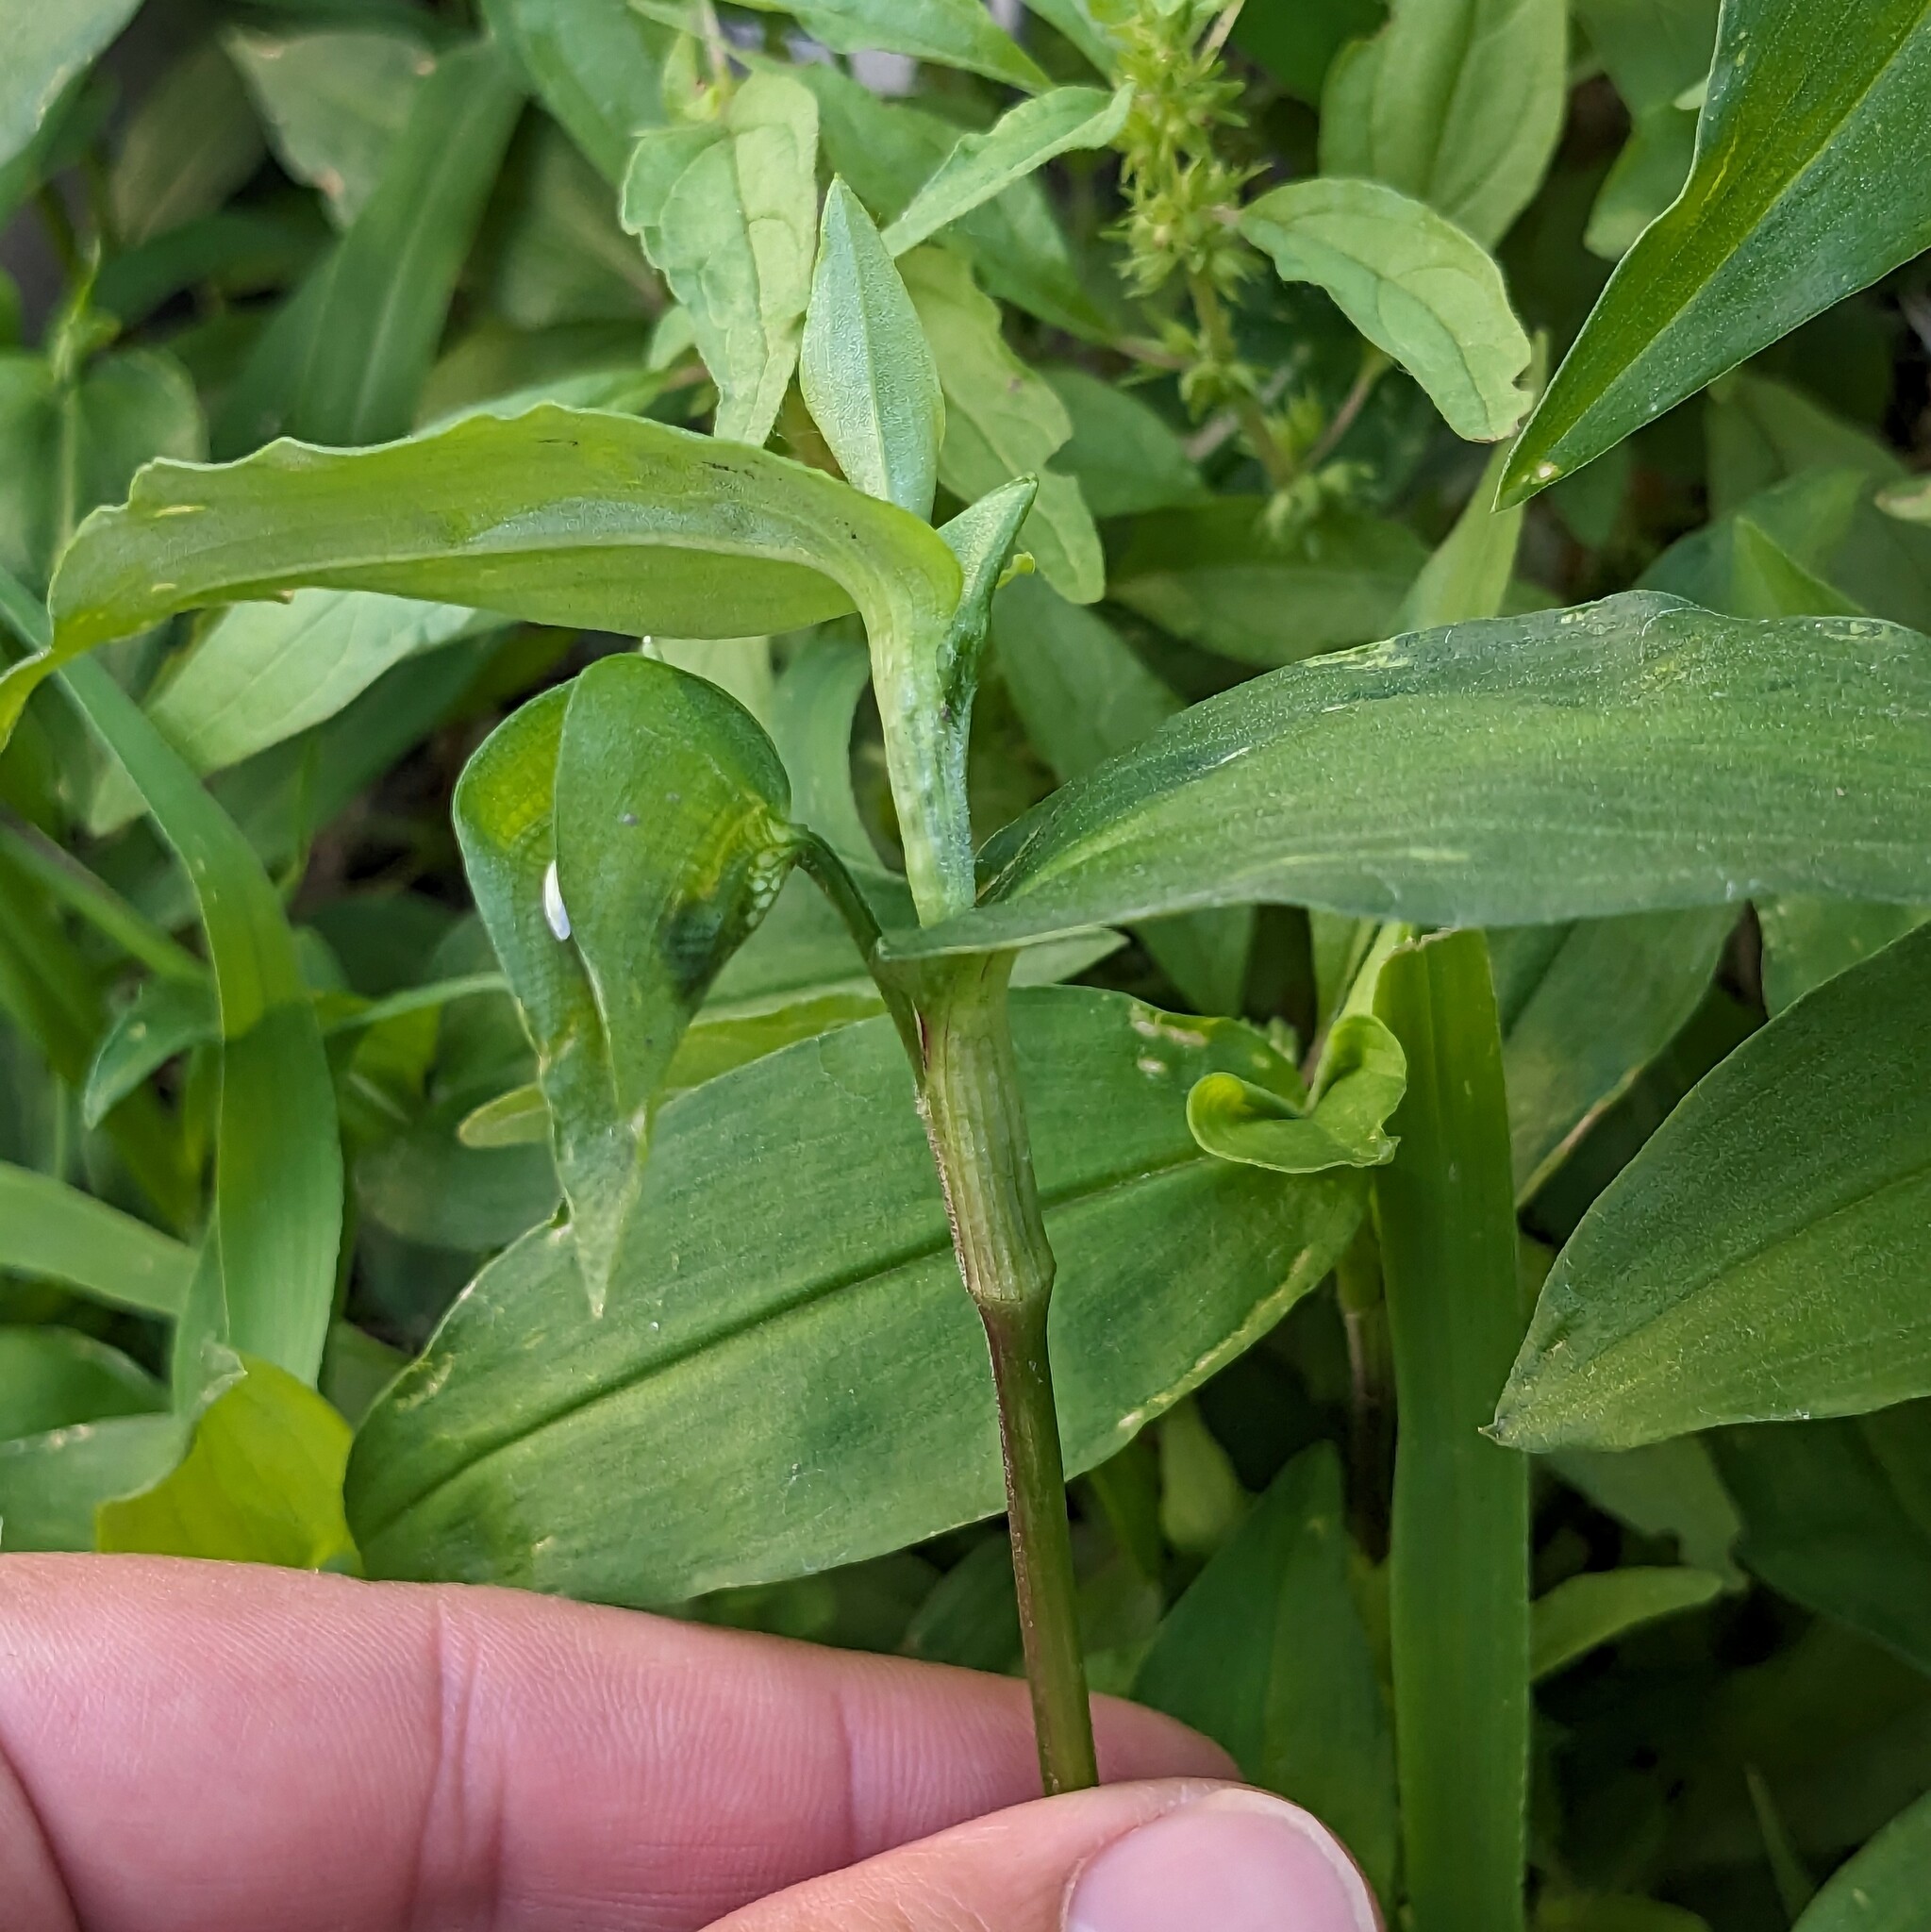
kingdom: Plantae
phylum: Tracheophyta
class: Liliopsida
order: Commelinales
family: Commelinaceae
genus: Commelina
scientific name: Commelina communis
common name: Asiatic dayflower
